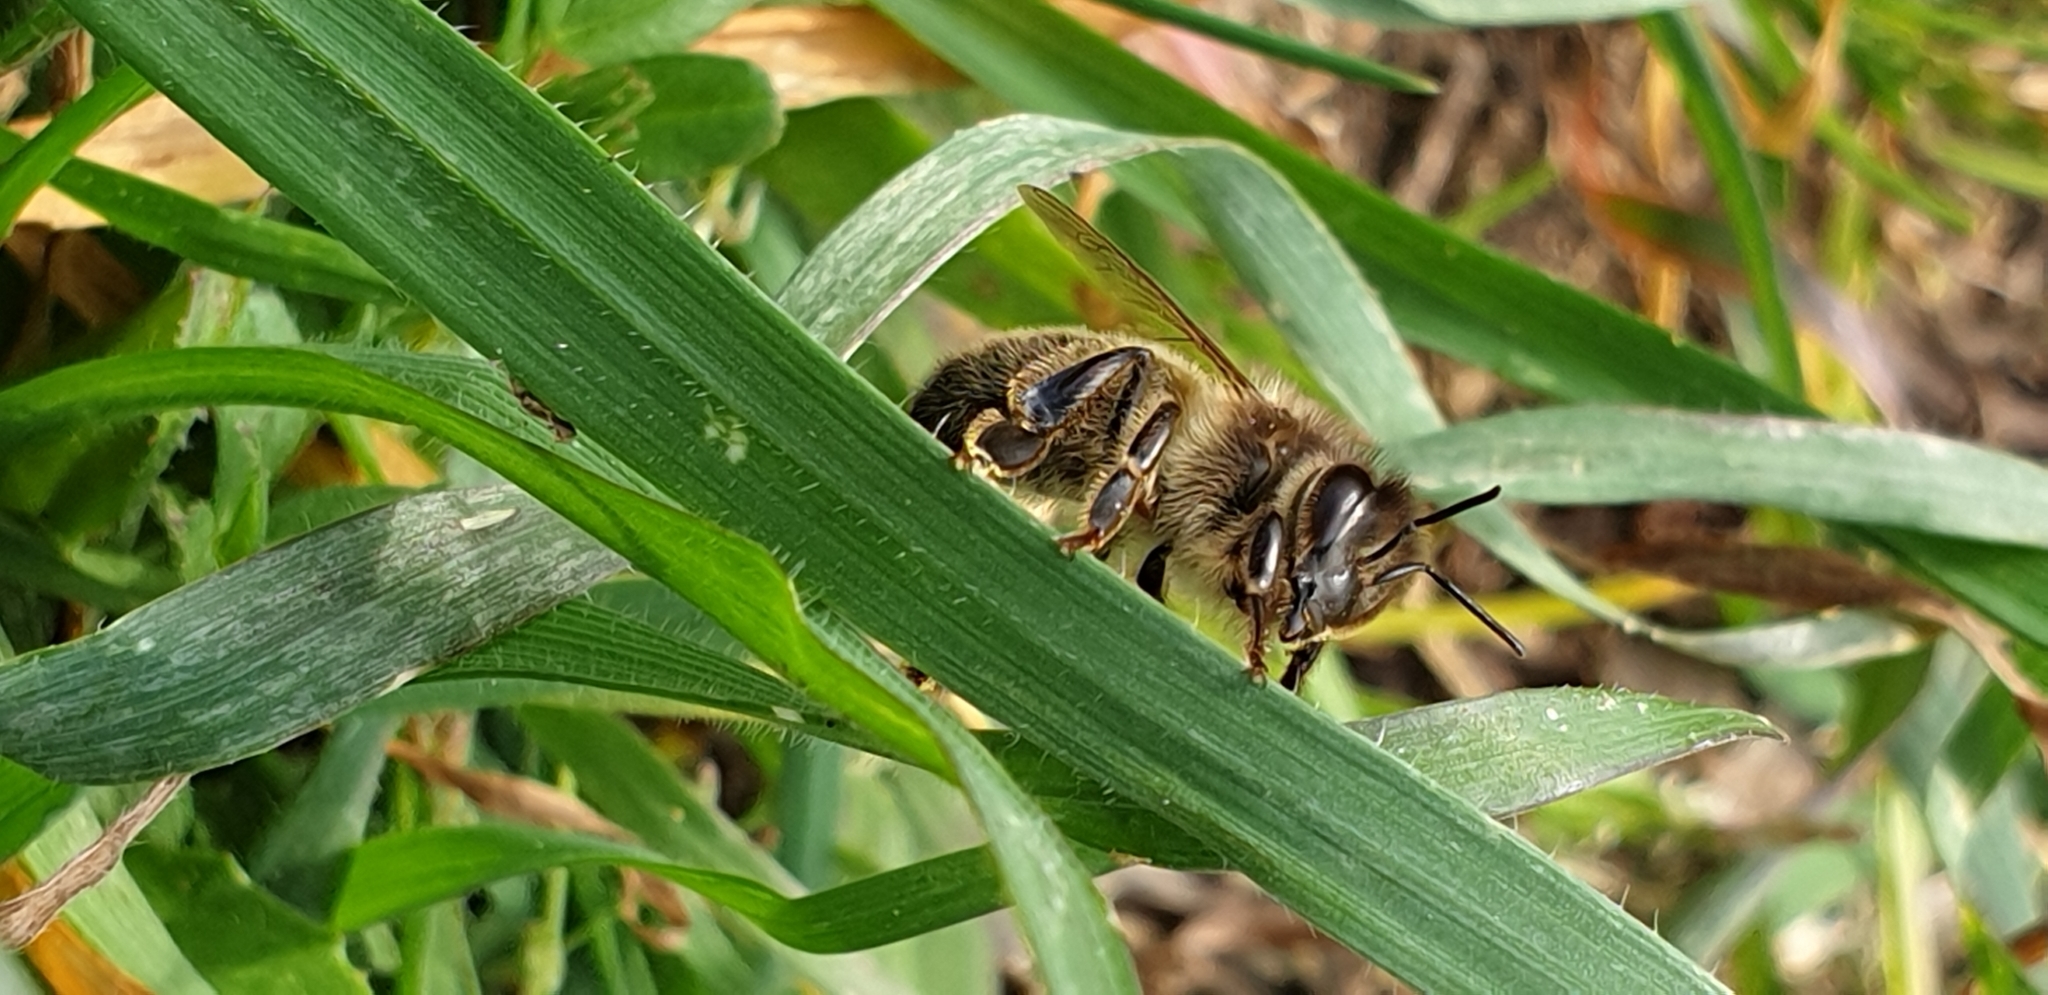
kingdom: Animalia
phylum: Arthropoda
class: Insecta
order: Hymenoptera
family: Apidae
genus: Apis
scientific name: Apis mellifera
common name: Honey bee
